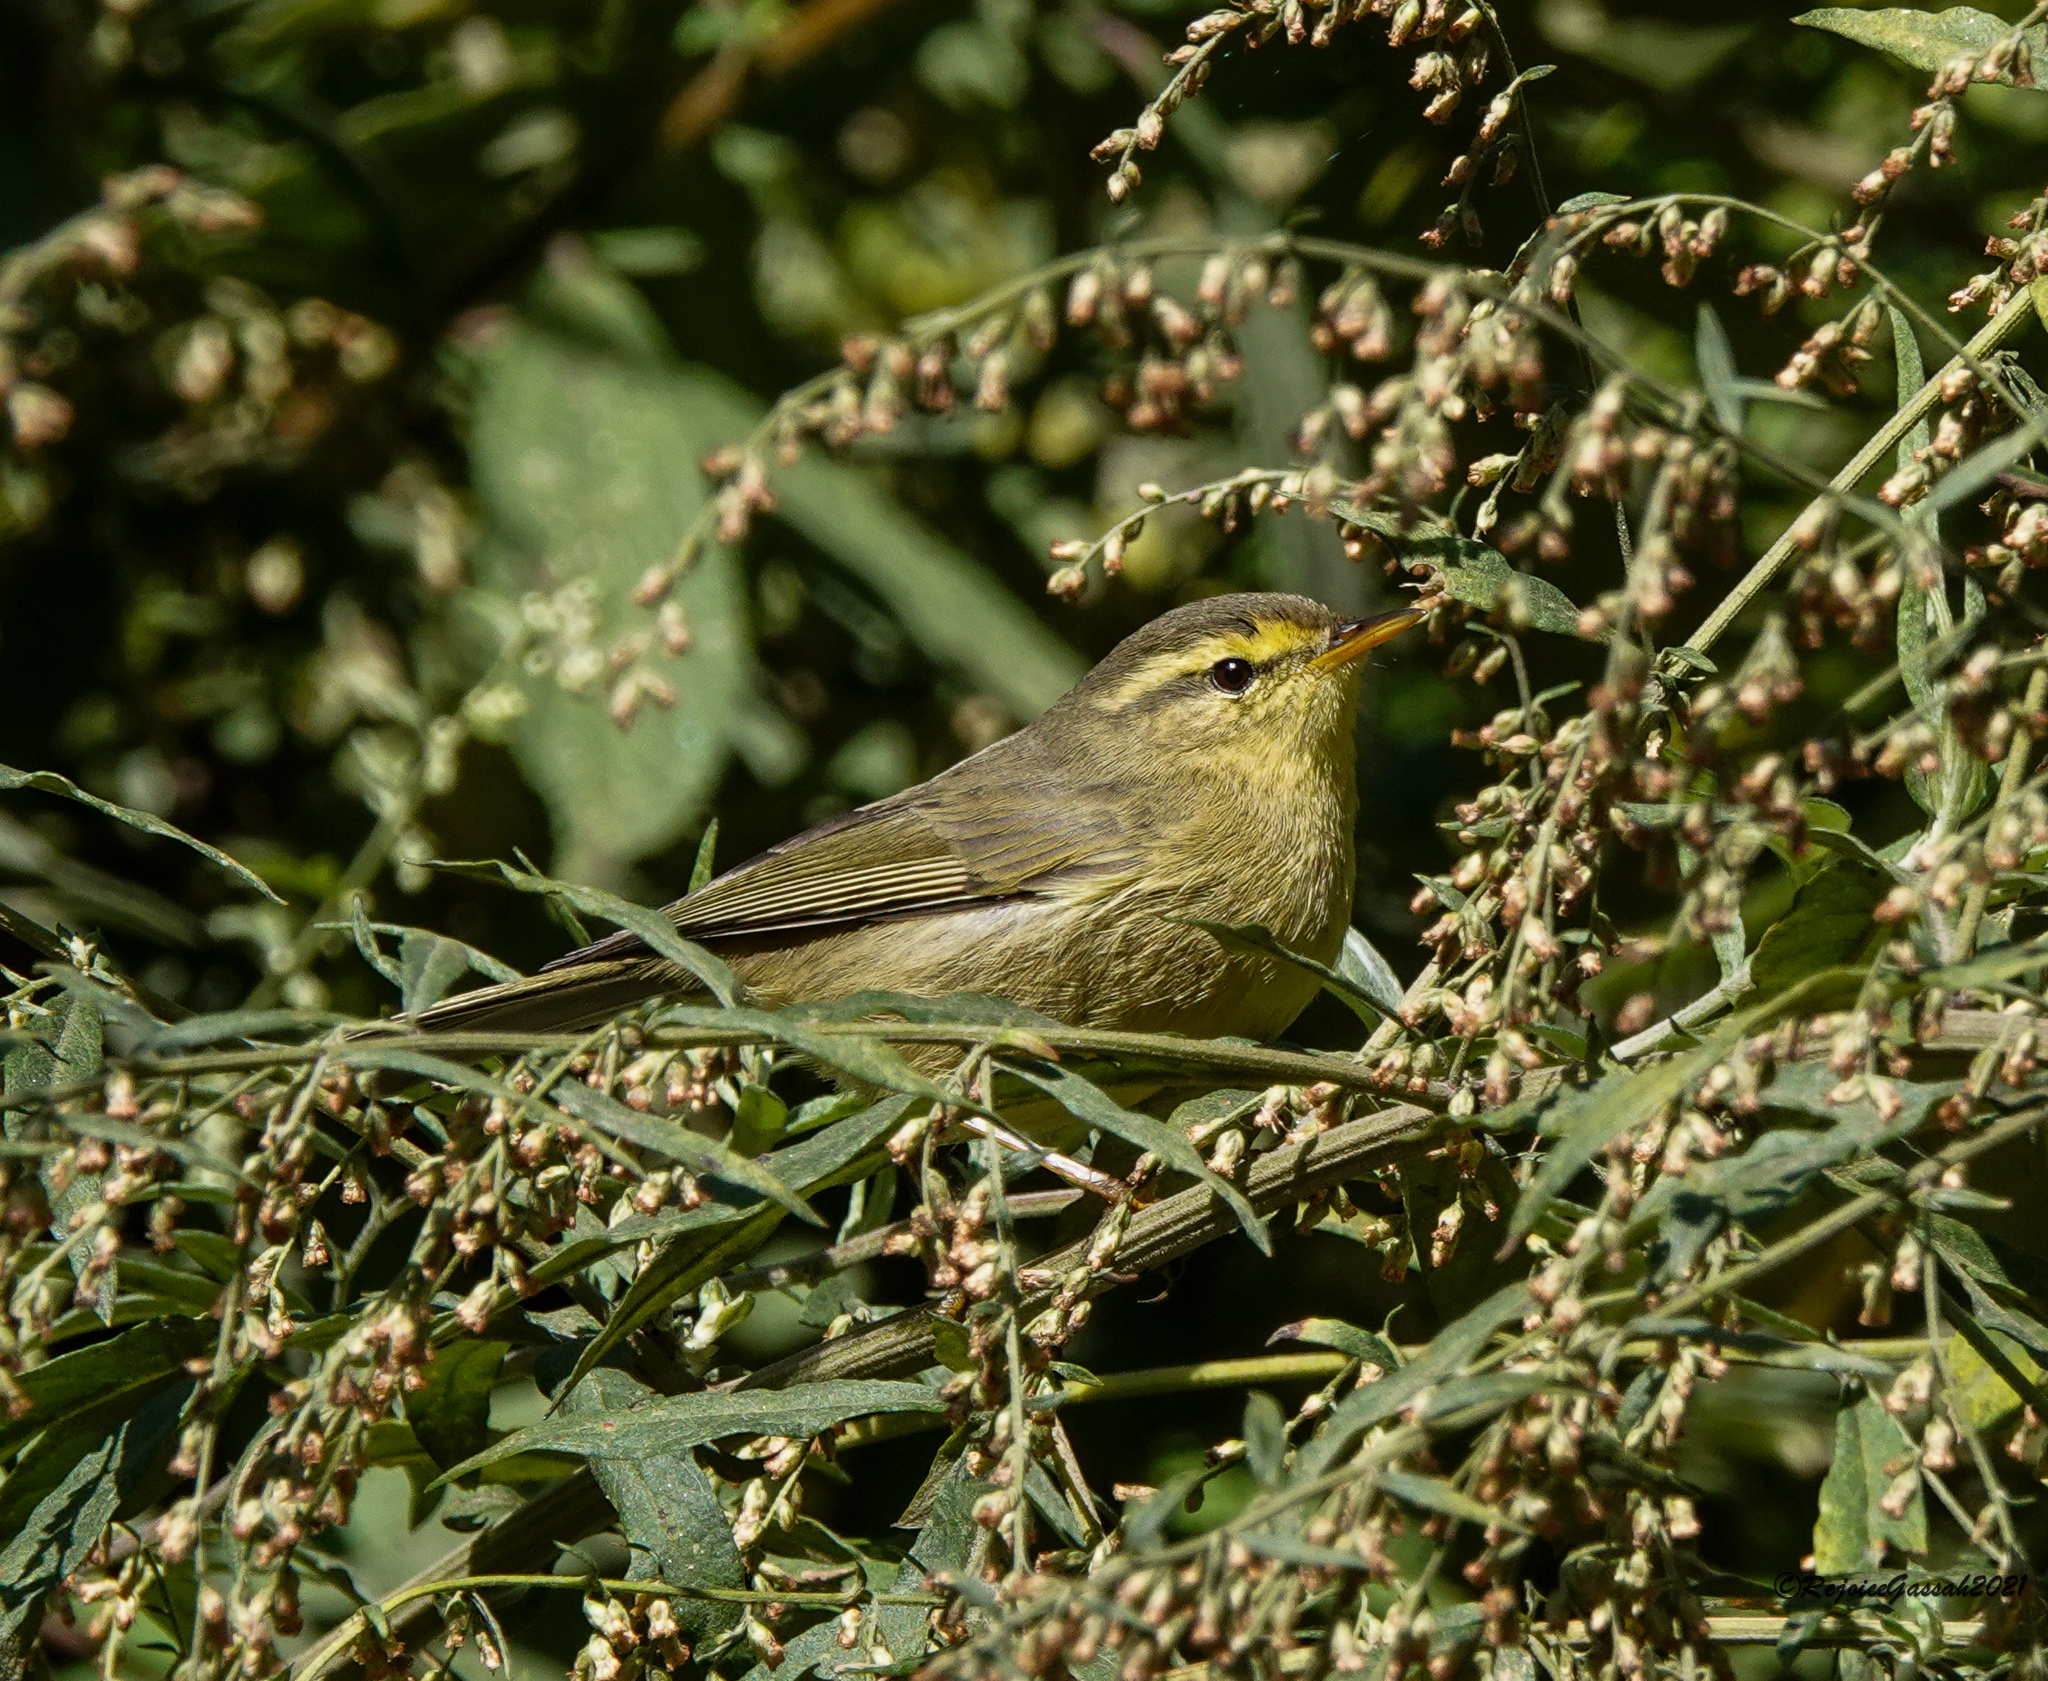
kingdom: Animalia
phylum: Chordata
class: Aves
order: Passeriformes
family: Phylloscopidae
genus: Phylloscopus
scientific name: Phylloscopus affinis
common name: Tickell's leaf warbler
